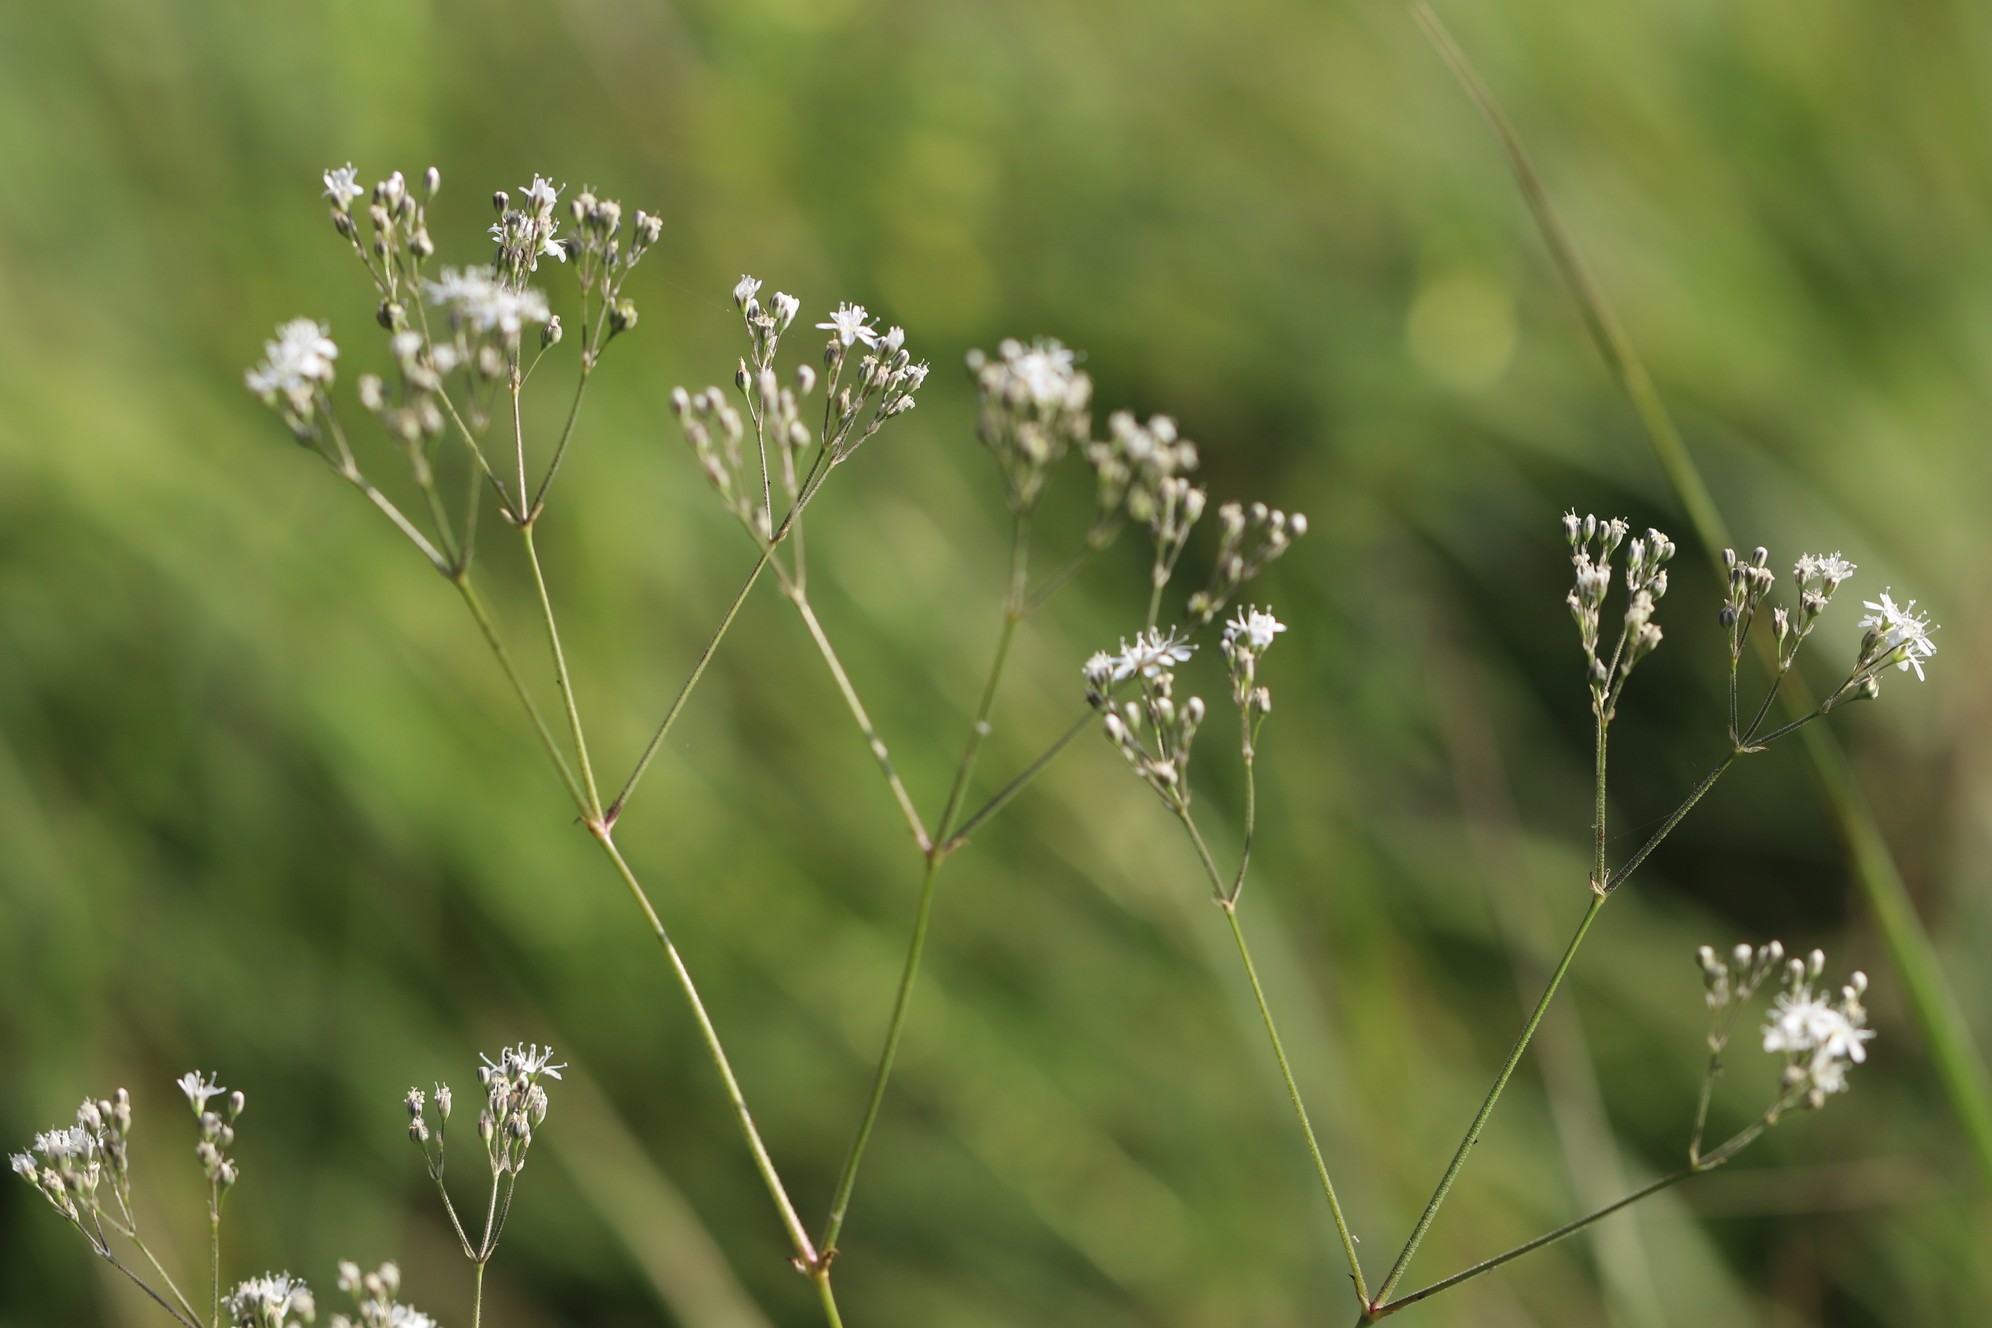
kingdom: Plantae
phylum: Tracheophyta
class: Magnoliopsida
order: Caryophyllales
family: Caryophyllaceae
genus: Gypsophila
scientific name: Gypsophila altissima
